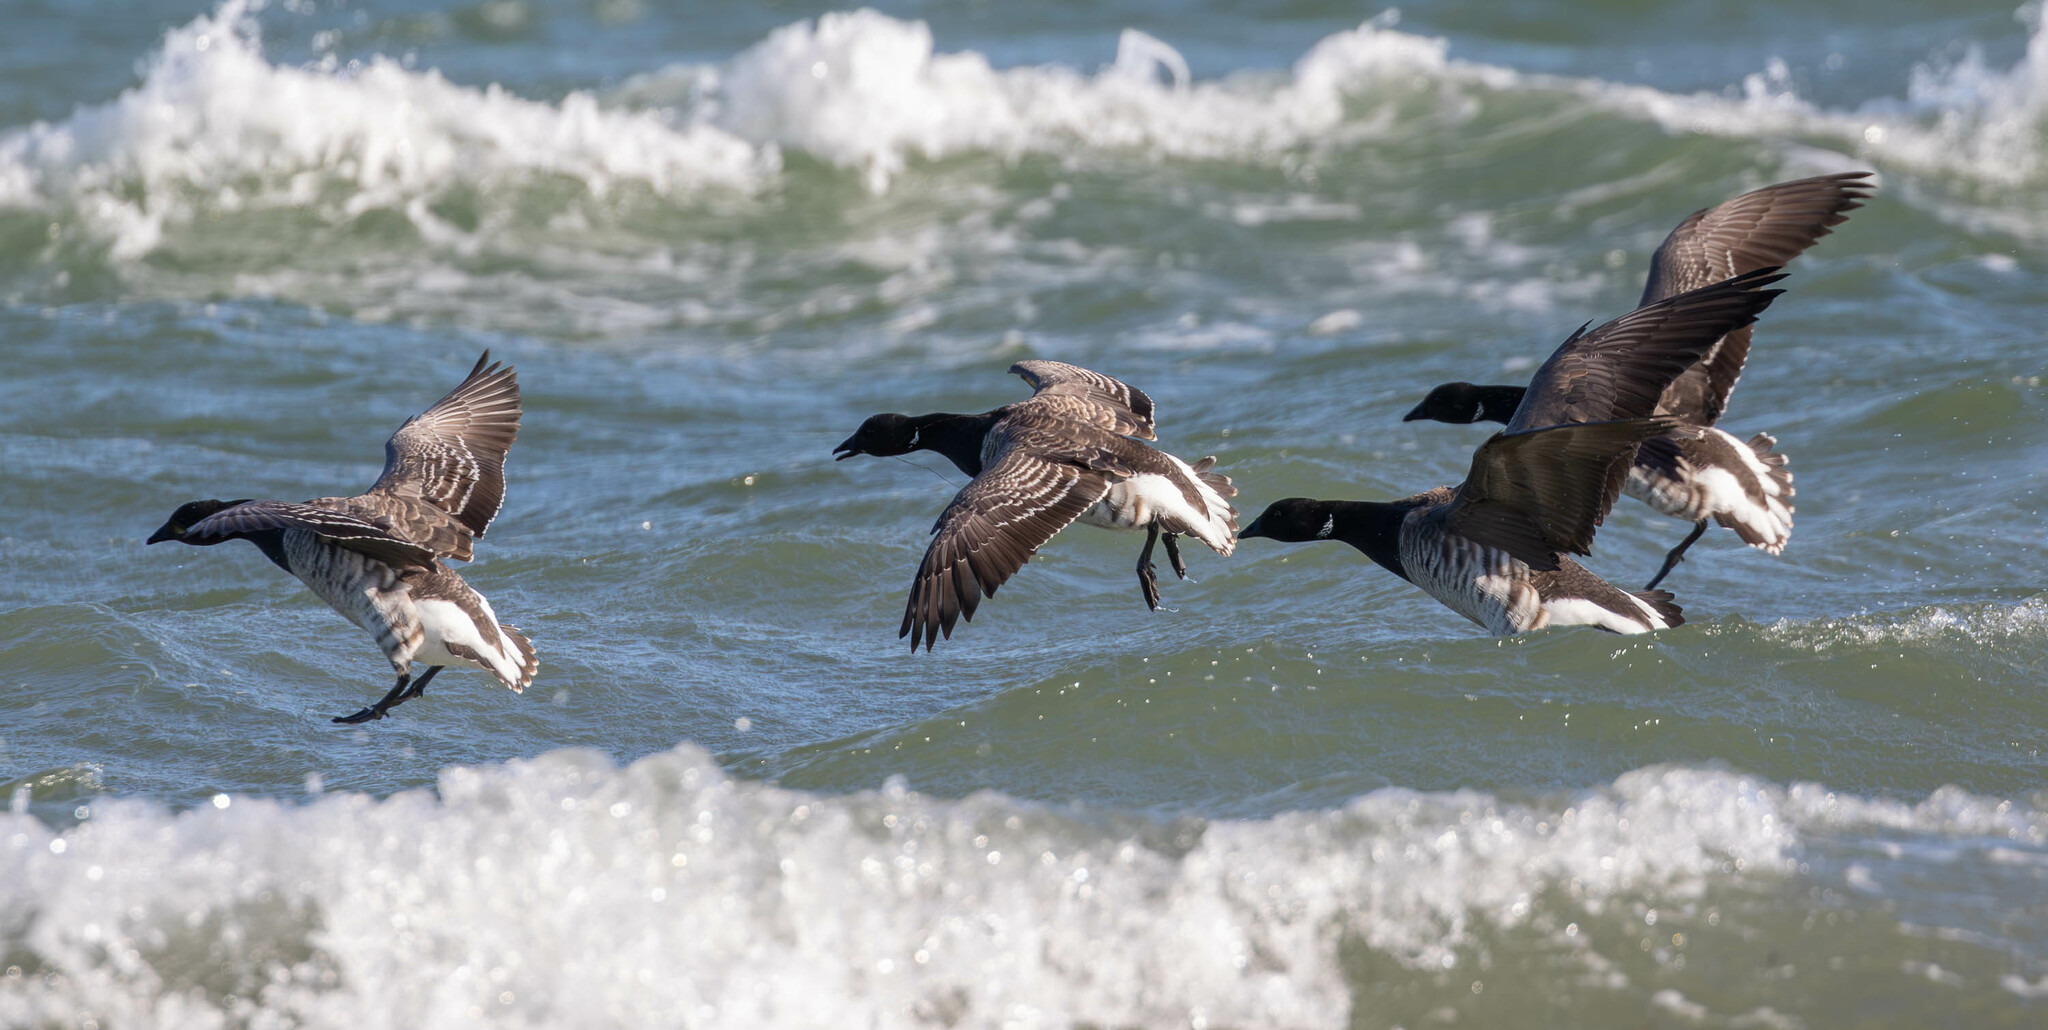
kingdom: Animalia
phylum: Chordata
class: Aves
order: Anseriformes
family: Anatidae
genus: Branta
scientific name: Branta bernicla
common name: Brant goose
